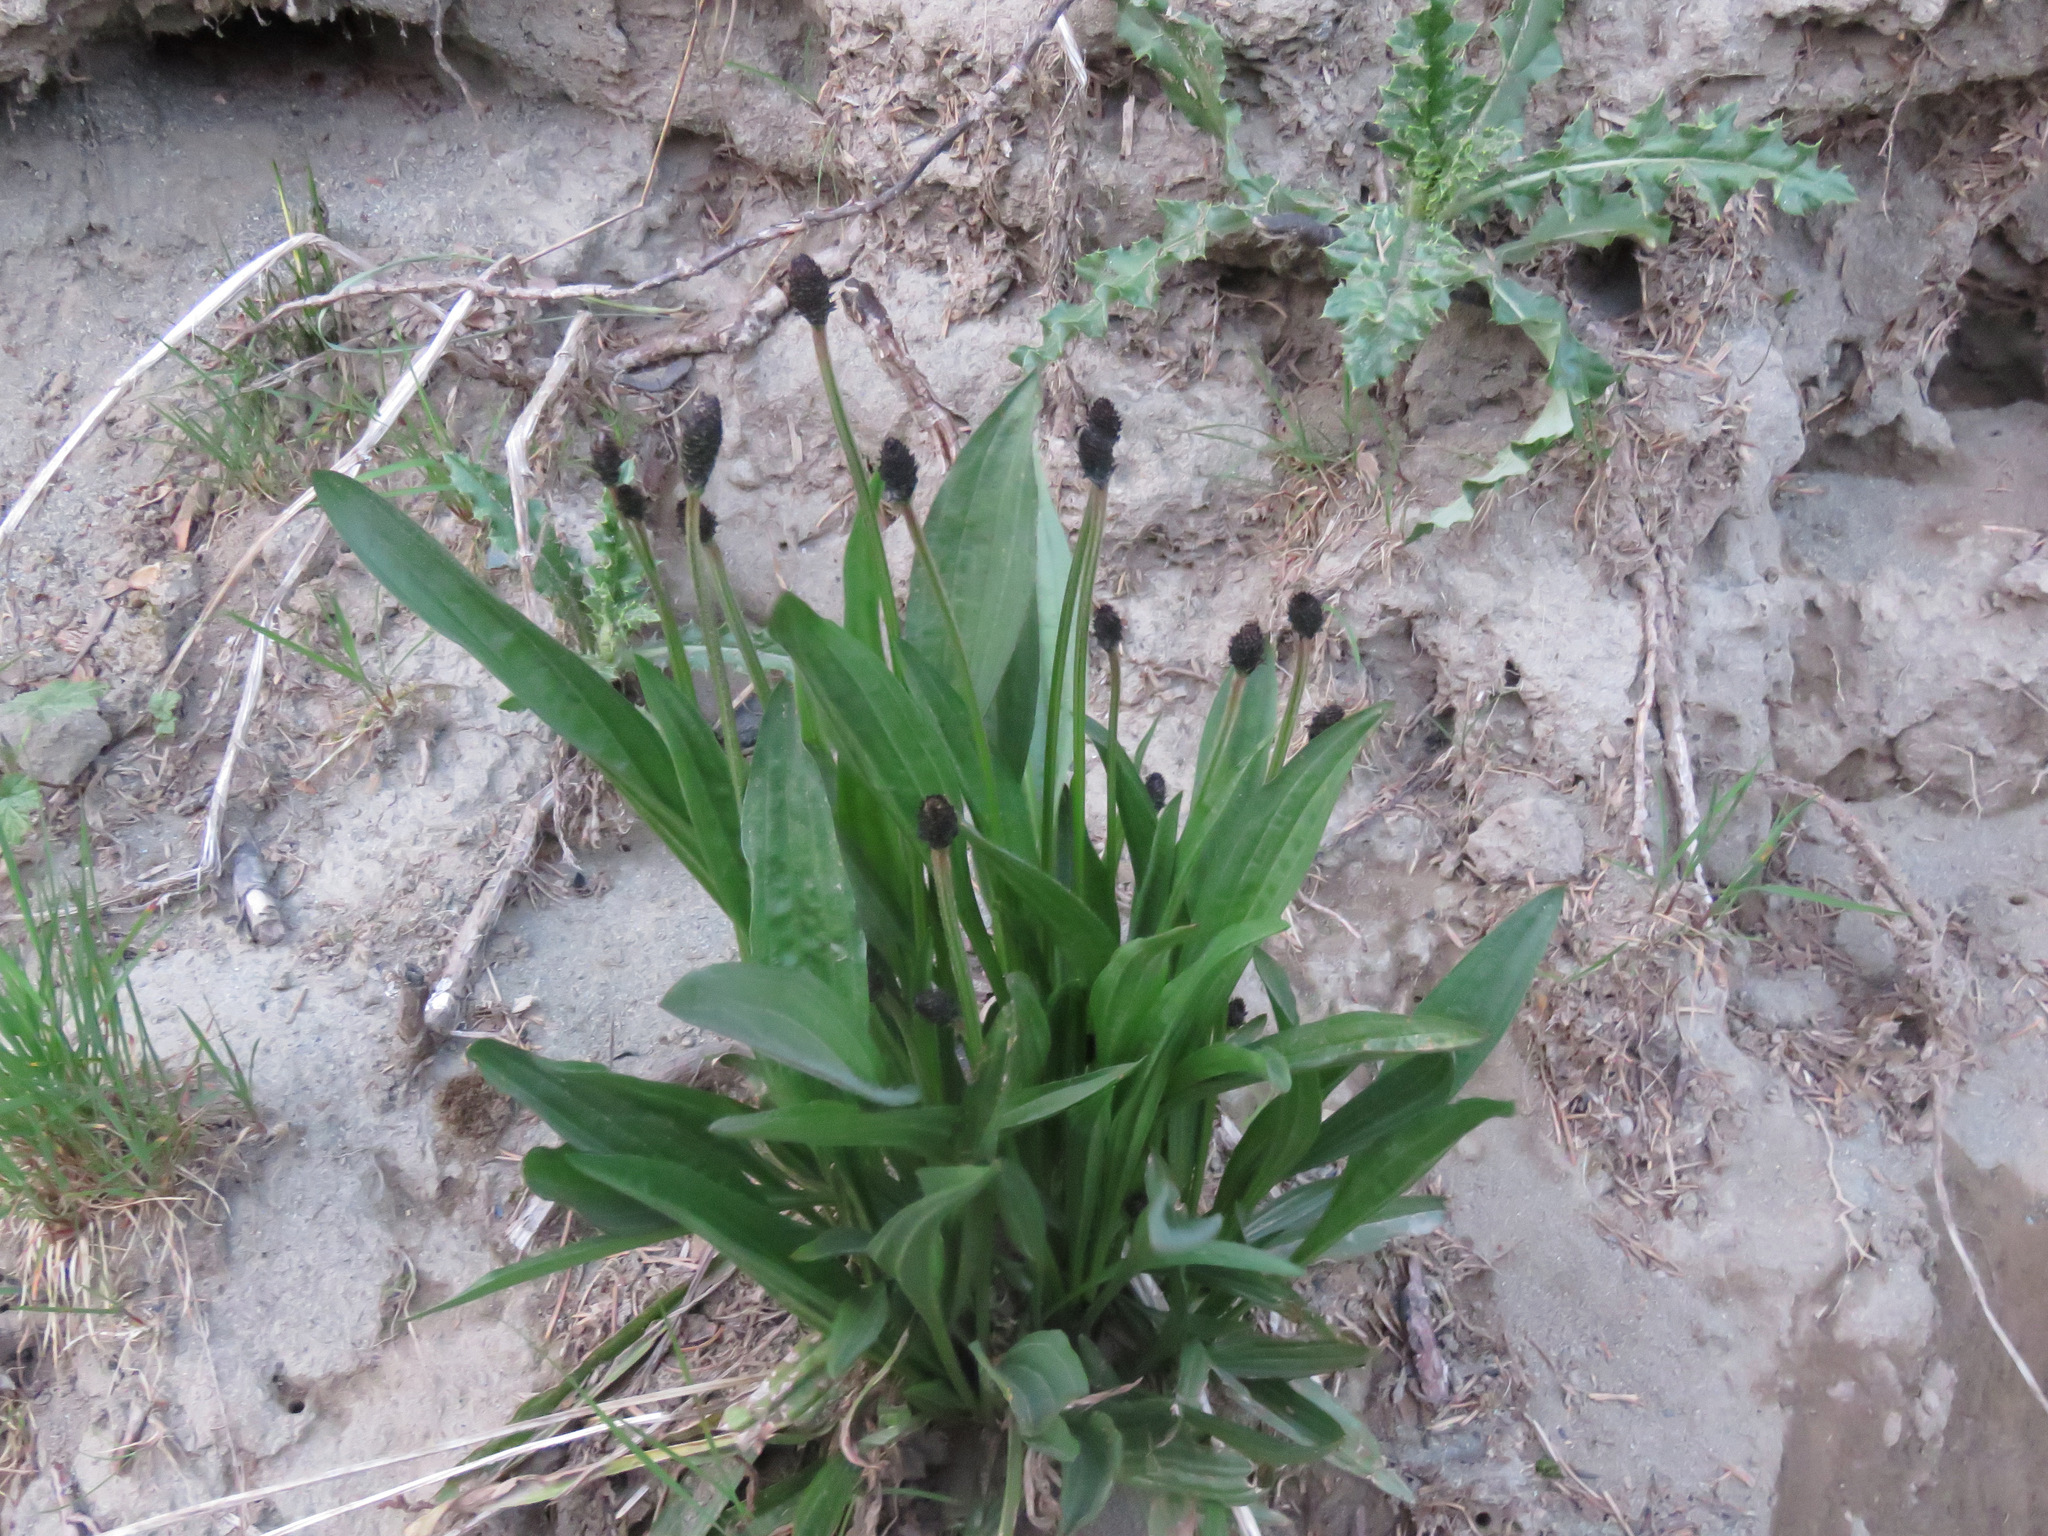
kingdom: Plantae
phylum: Tracheophyta
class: Magnoliopsida
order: Lamiales
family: Plantaginaceae
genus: Plantago
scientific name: Plantago lanceolata
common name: Ribwort plantain
